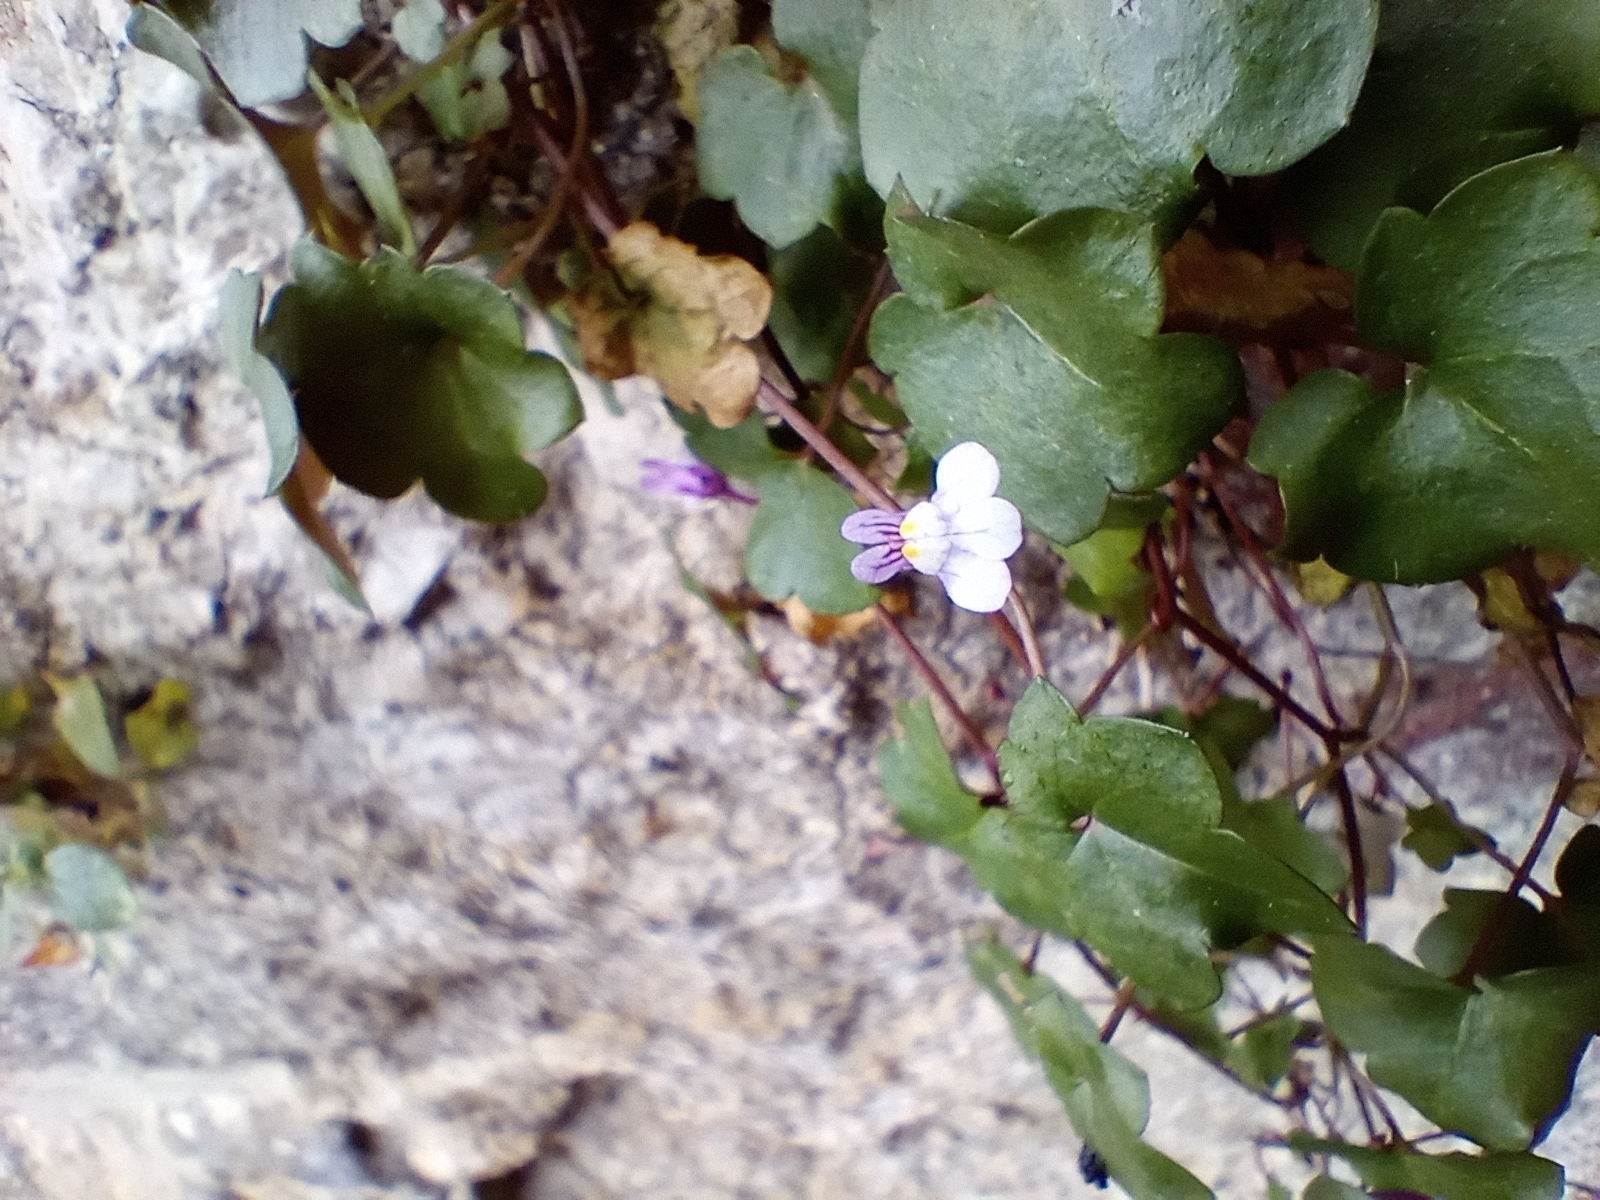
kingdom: Plantae
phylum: Tracheophyta
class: Magnoliopsida
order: Lamiales
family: Plantaginaceae
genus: Cymbalaria
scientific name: Cymbalaria muralis
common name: Ivy-leaved toadflax
